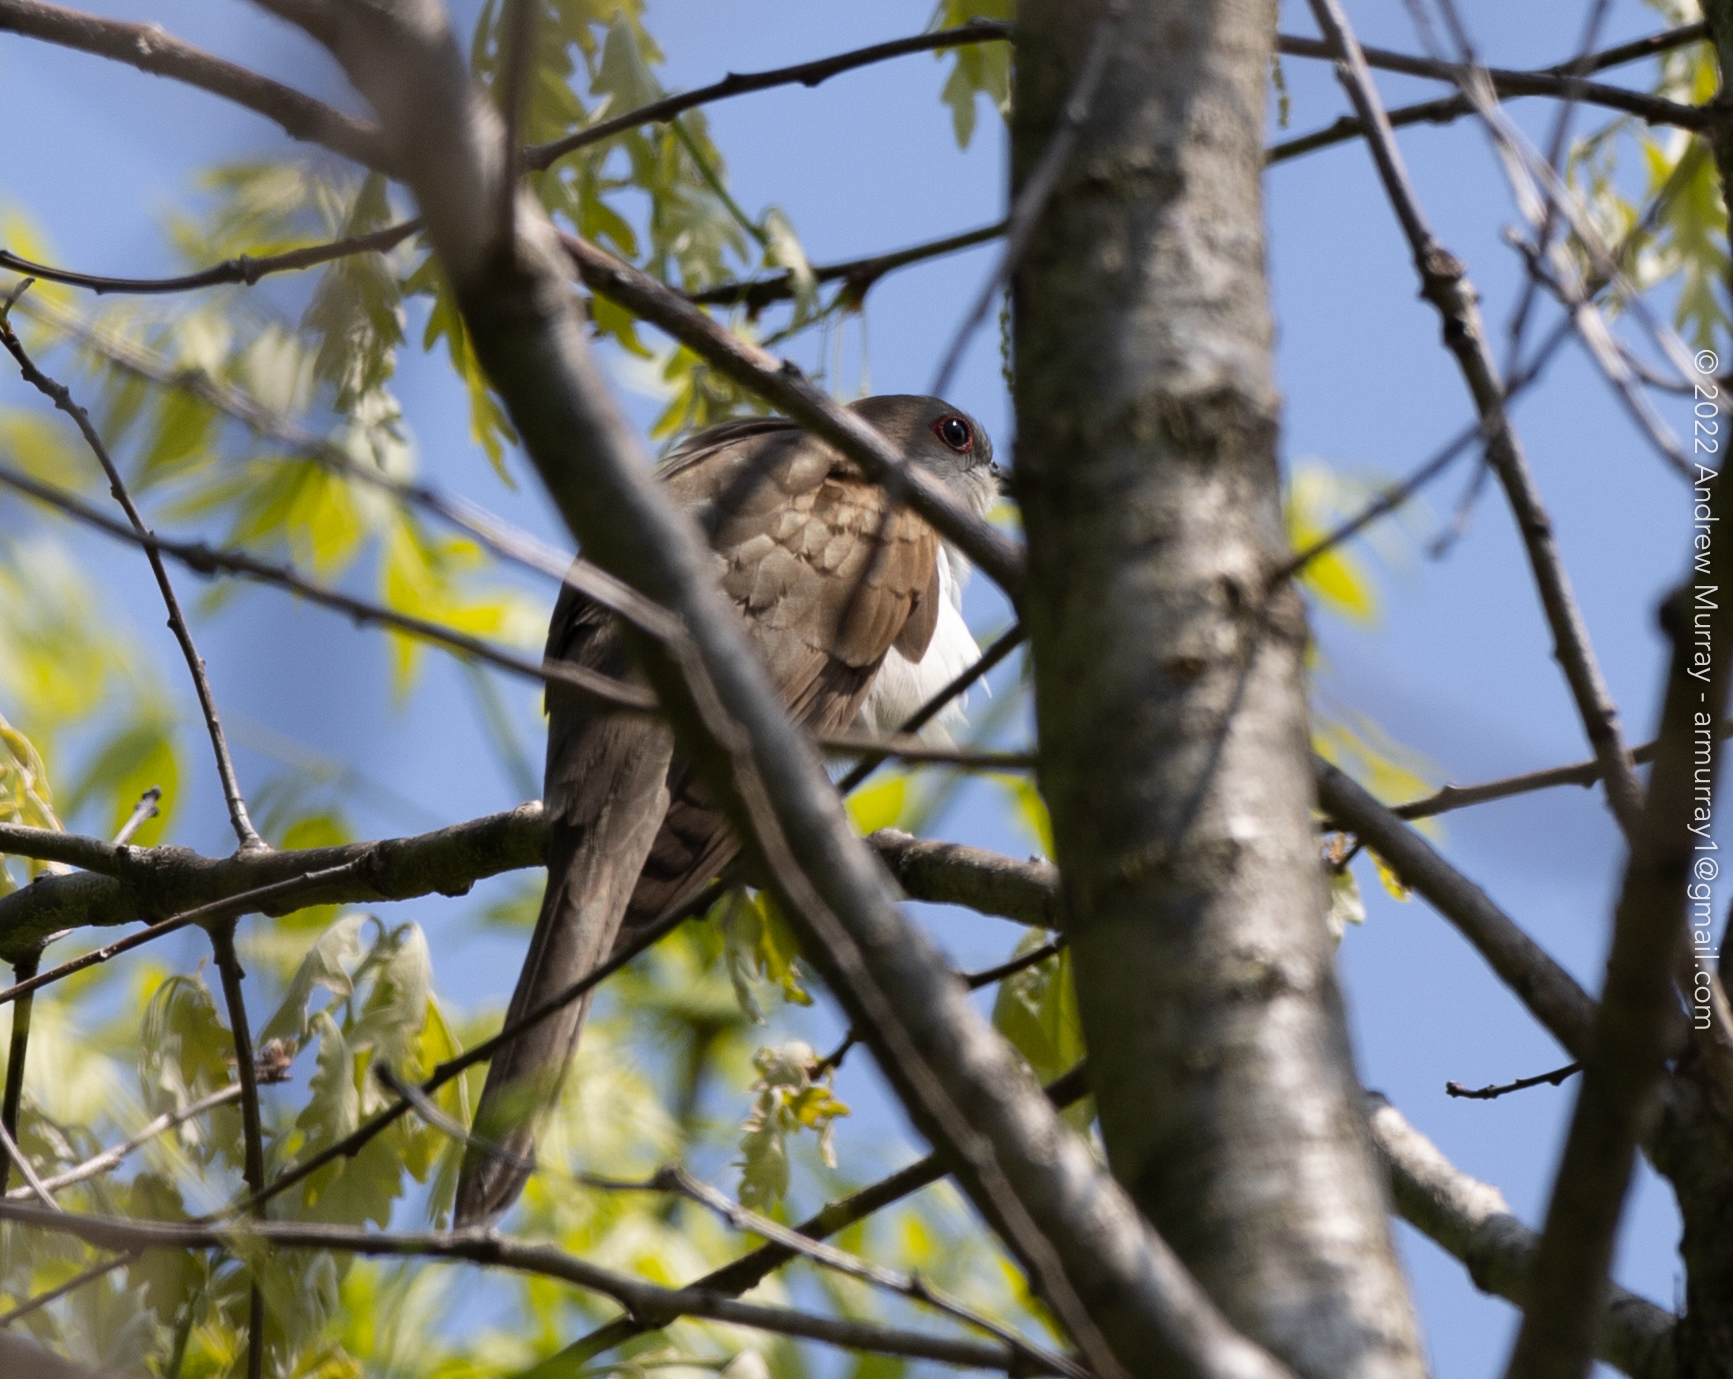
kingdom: Animalia
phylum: Chordata
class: Aves
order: Cuculiformes
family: Cuculidae
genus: Coccyzus
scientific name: Coccyzus erythropthalmus
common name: Black-billed cuckoo
